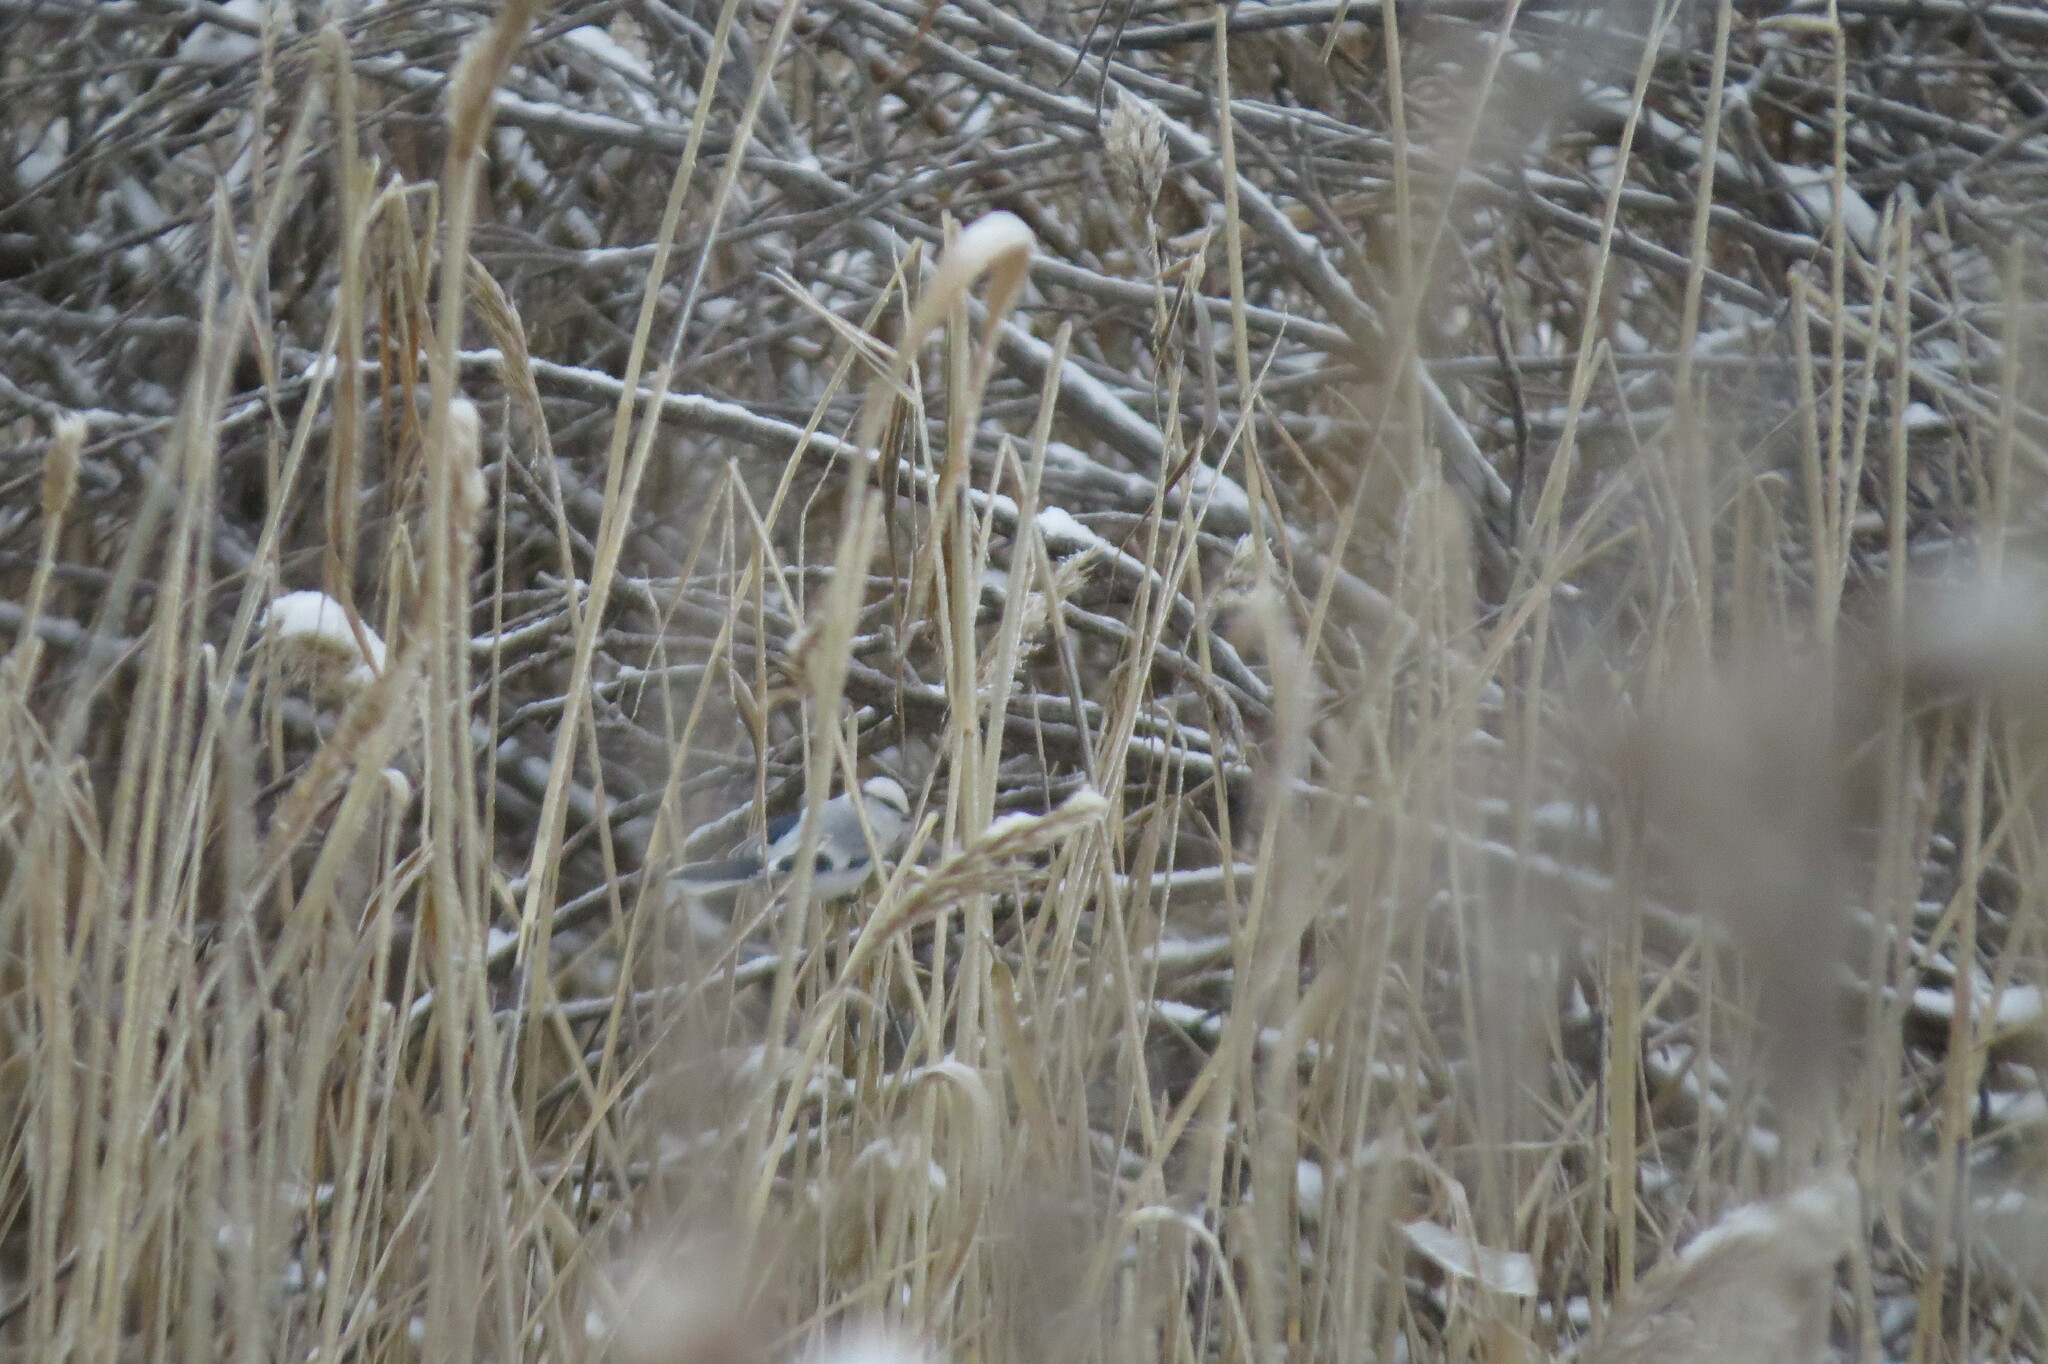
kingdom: Animalia
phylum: Chordata
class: Aves
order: Passeriformes
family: Paridae
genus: Cyanistes
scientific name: Cyanistes cyanus
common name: Azure tit
